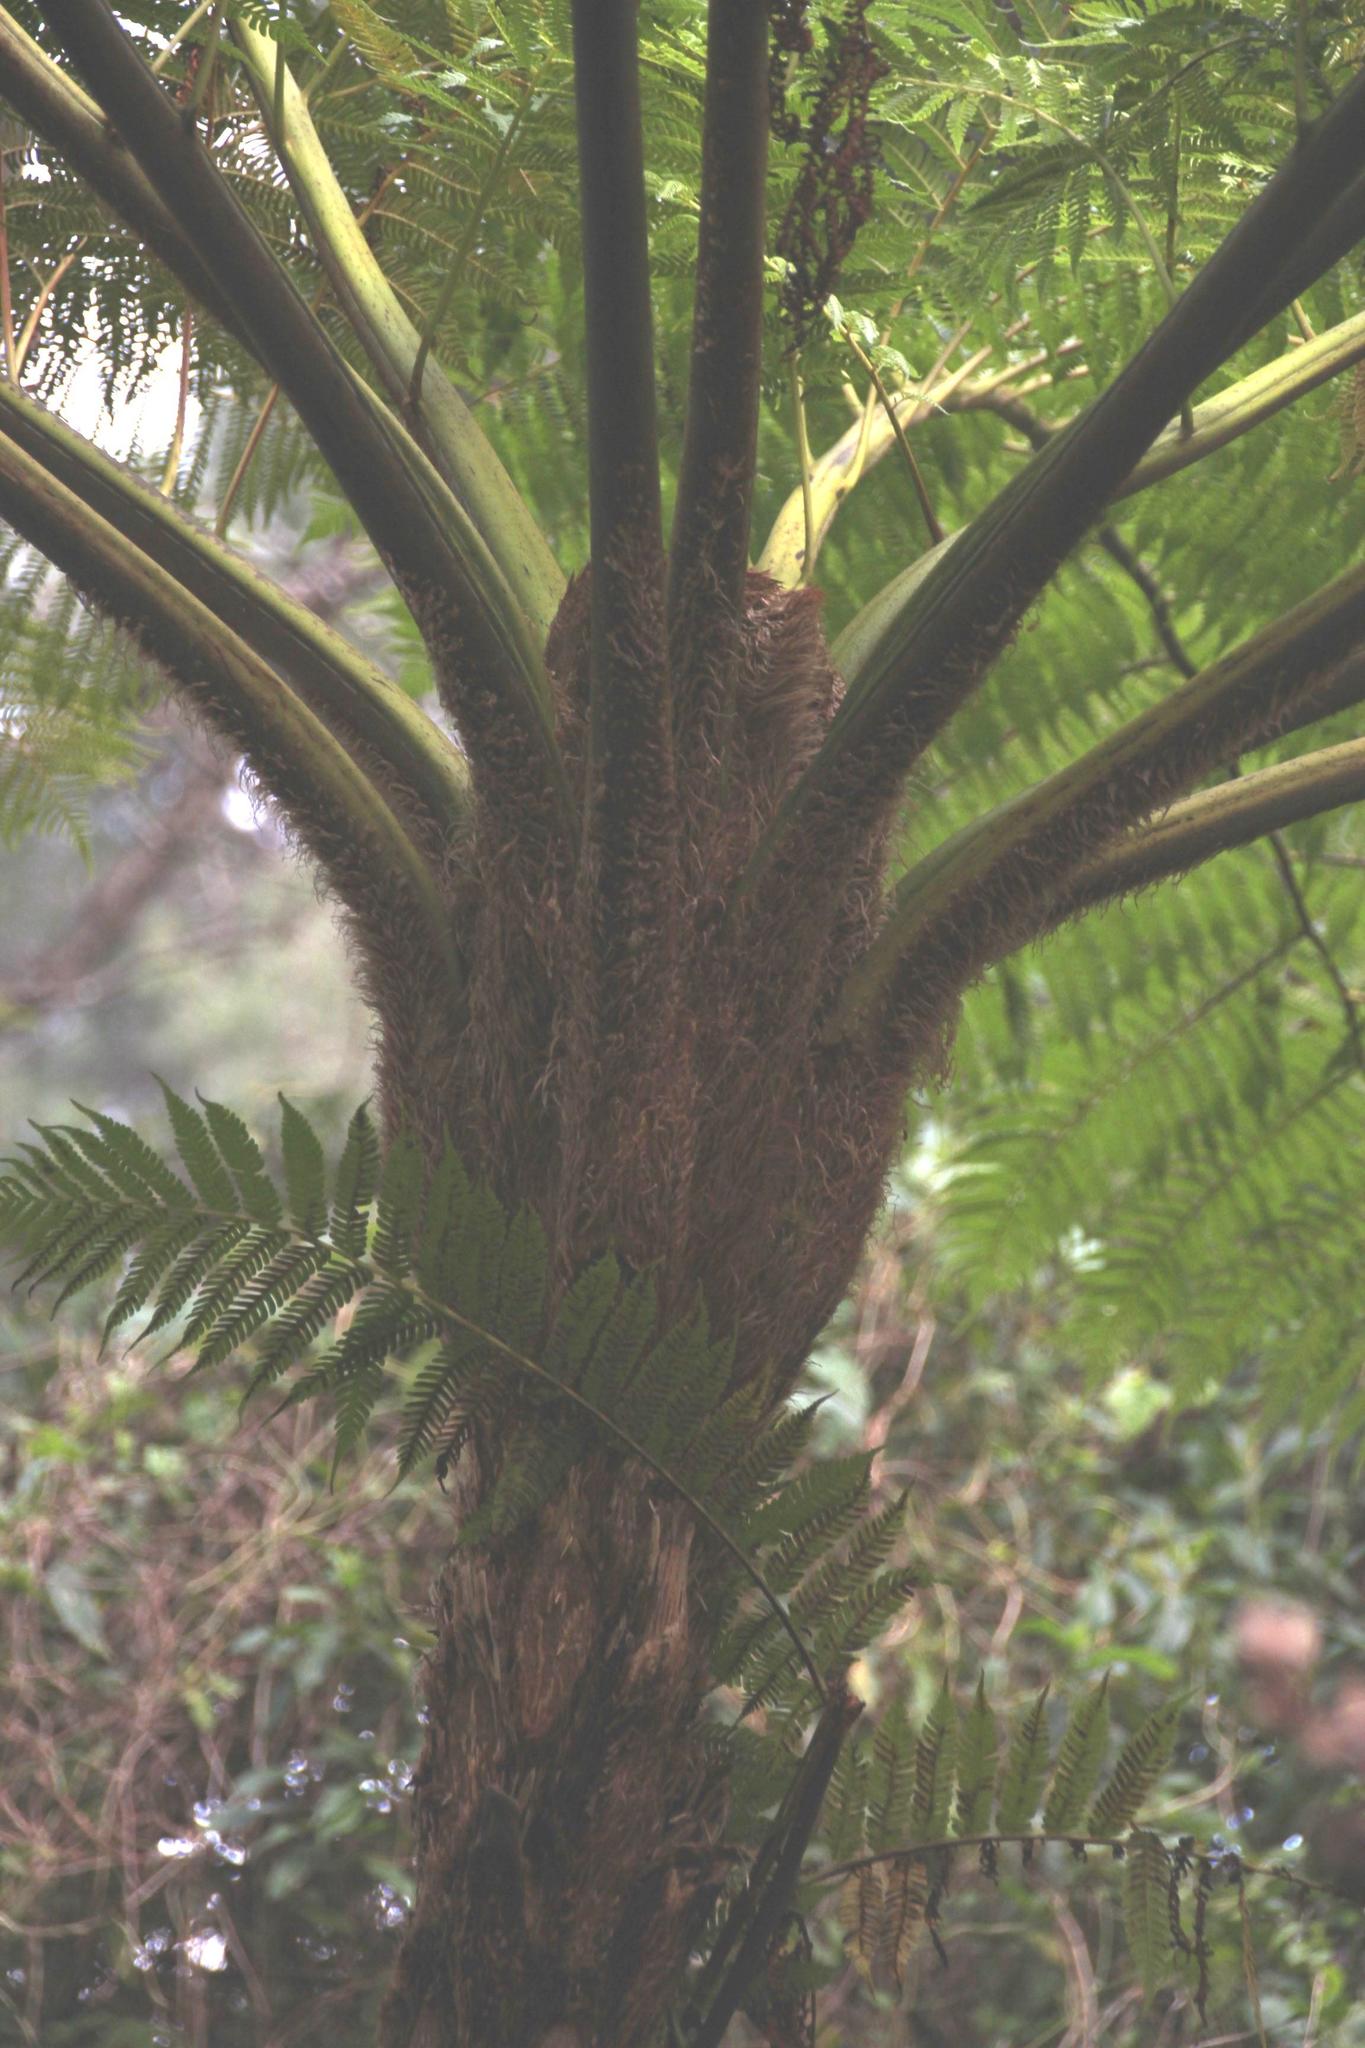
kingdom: Plantae
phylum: Tracheophyta
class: Polypodiopsida
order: Cyatheales
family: Cyatheaceae
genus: Sphaeropteris
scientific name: Sphaeropteris cooperi
